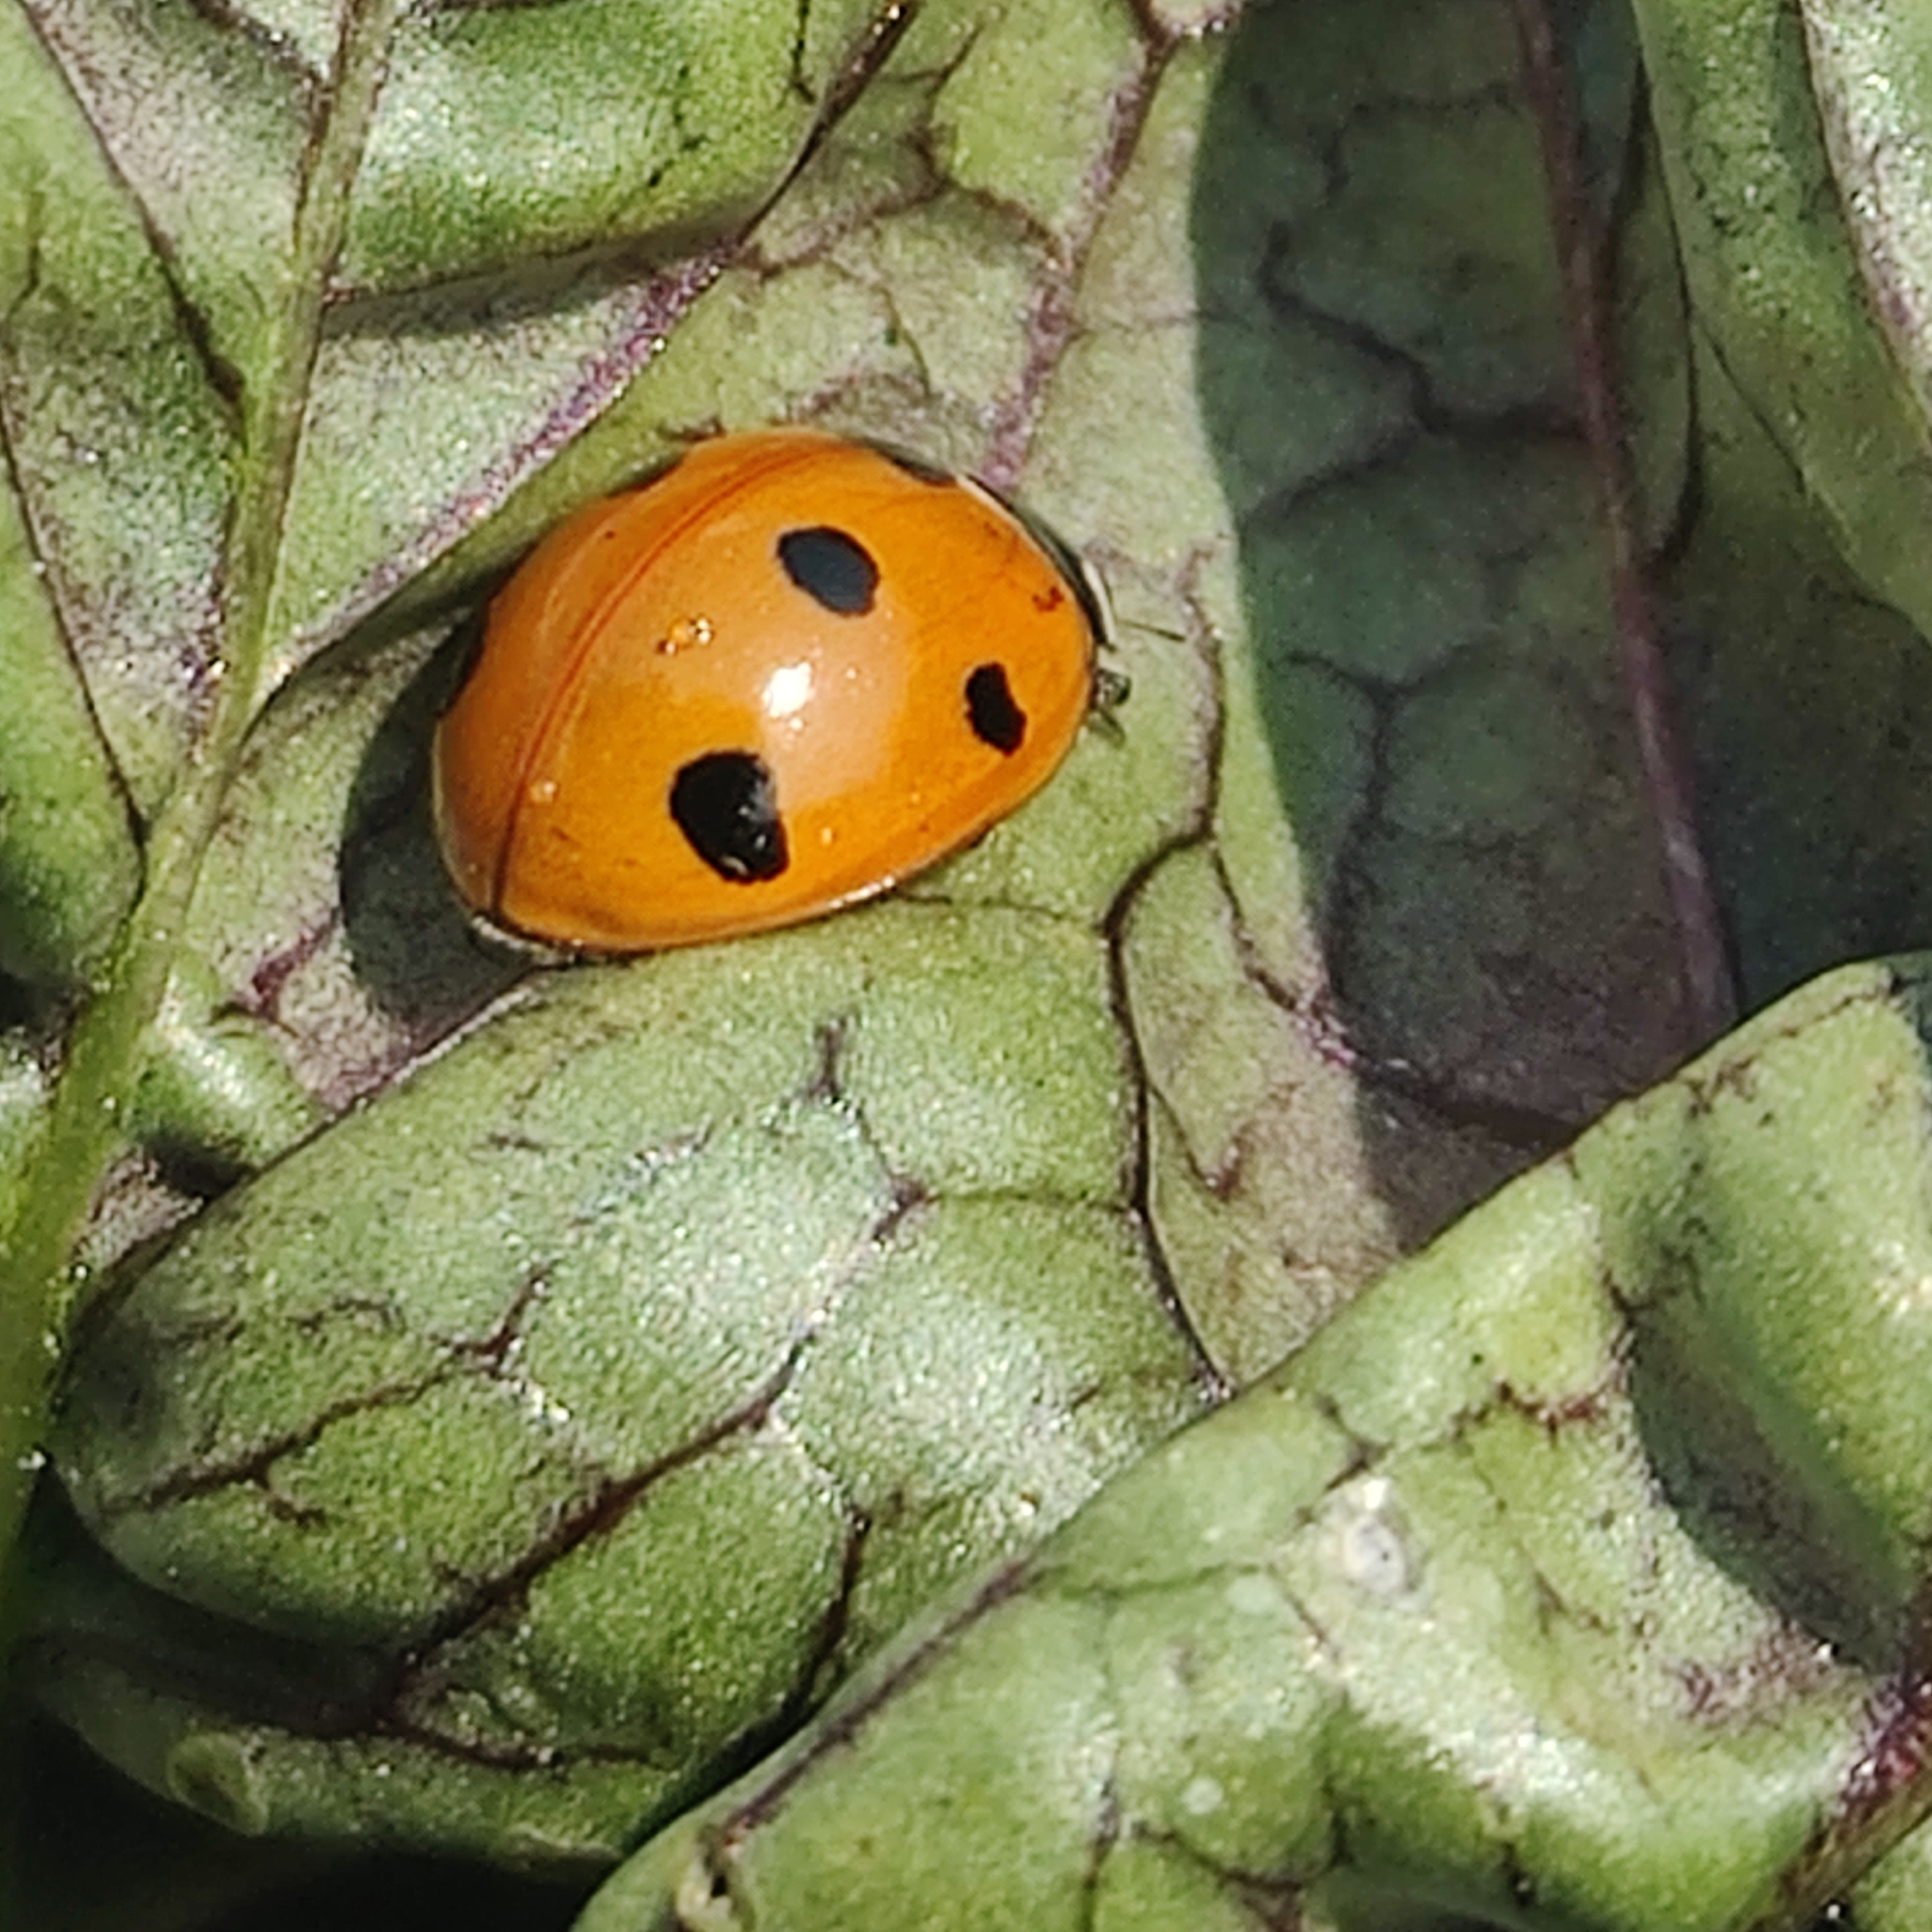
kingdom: Animalia
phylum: Arthropoda
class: Insecta
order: Coleoptera
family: Coccinellidae
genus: Coccinella
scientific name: Coccinella septempunctata
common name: Sevenspotted lady beetle
